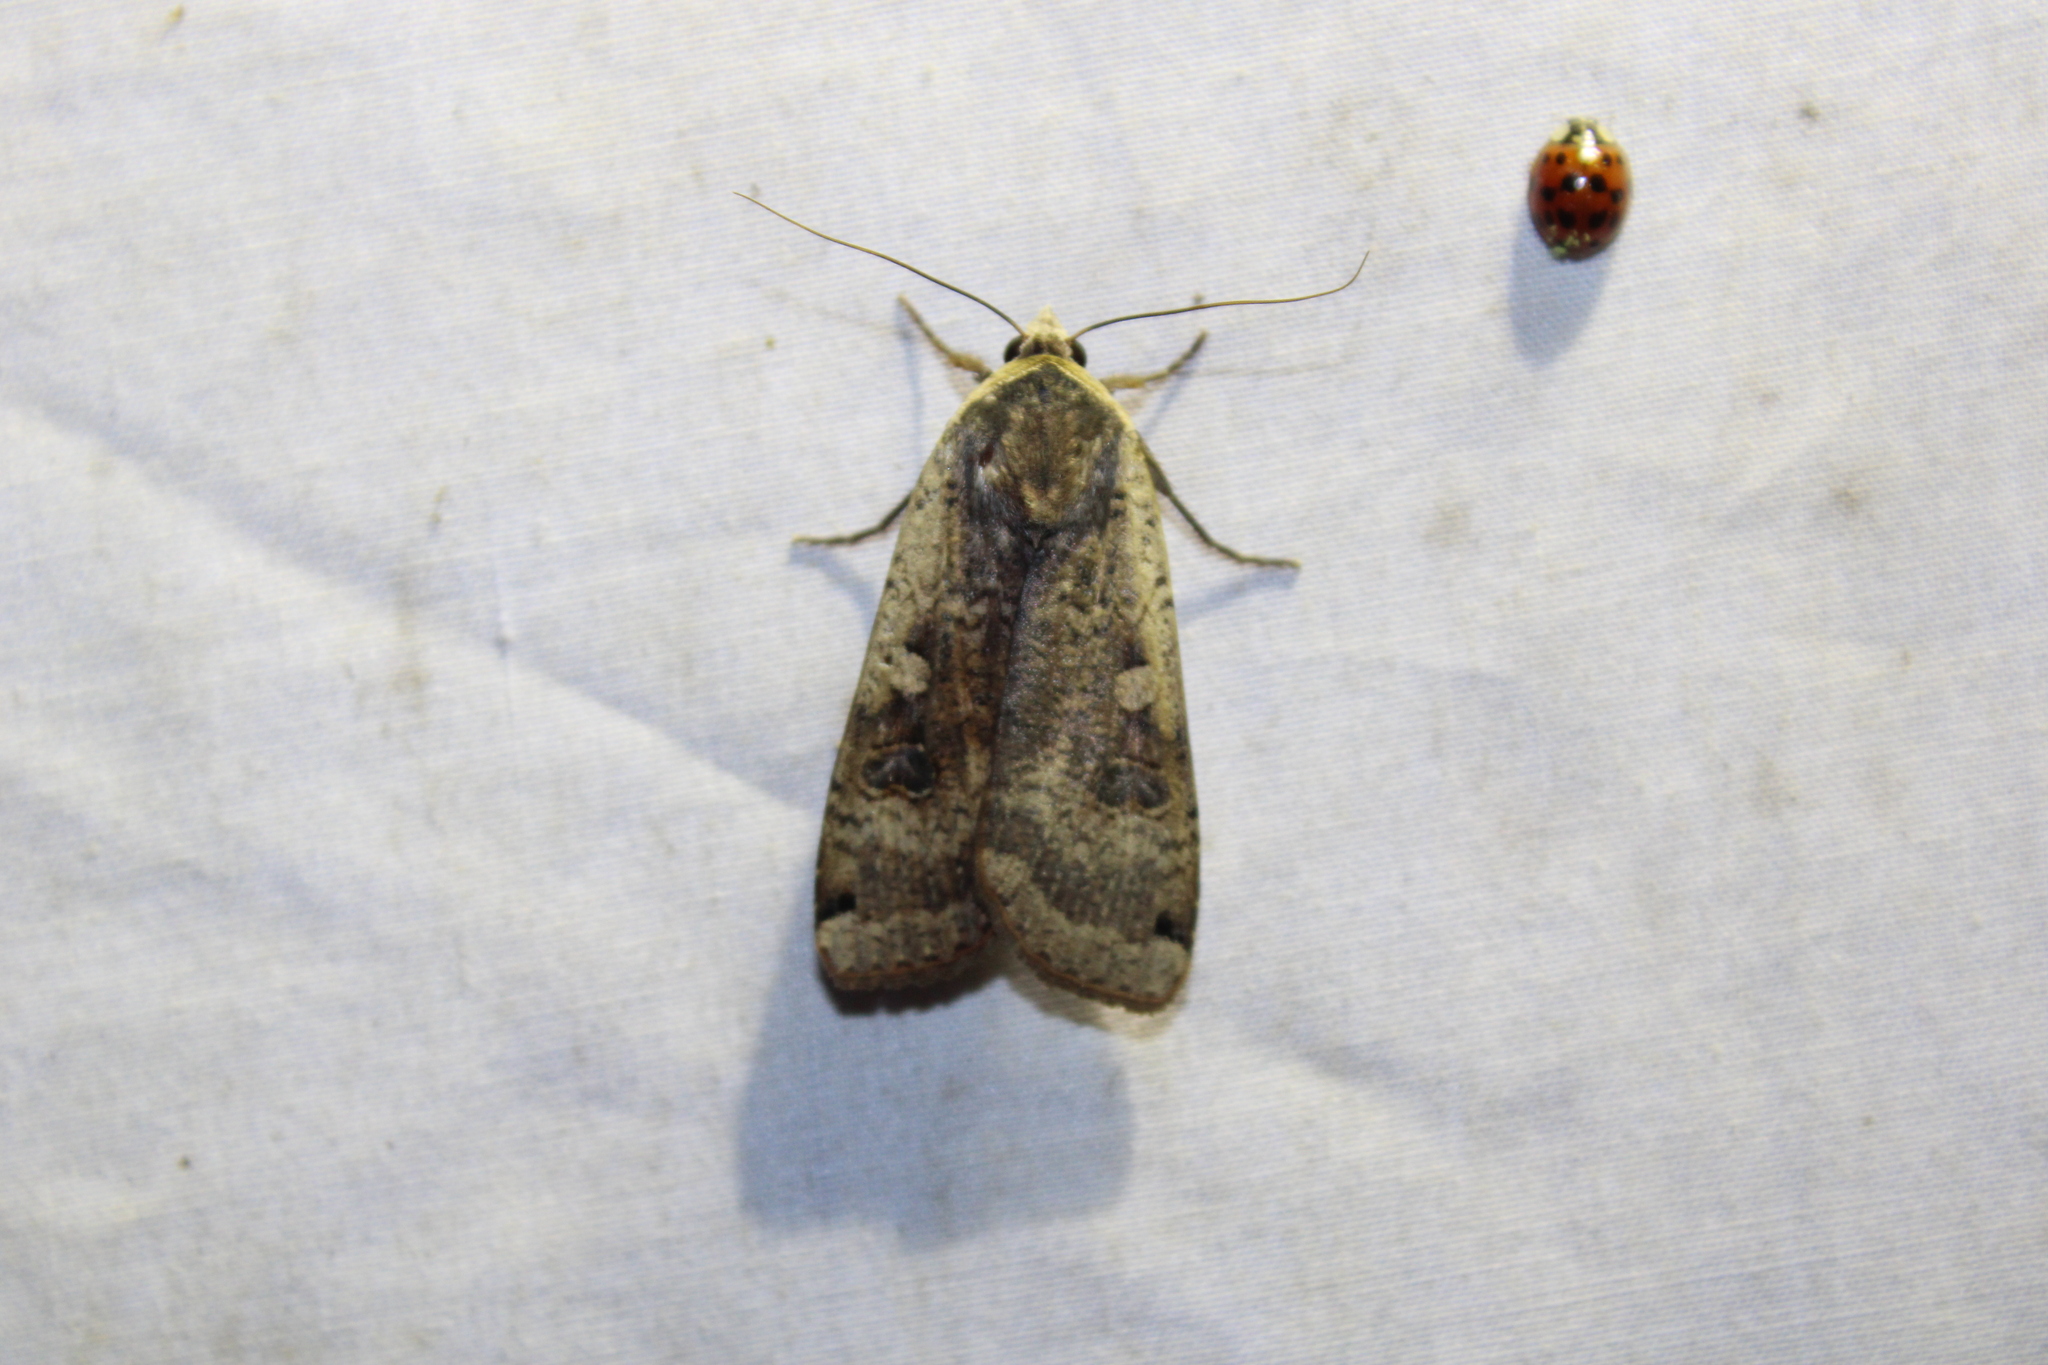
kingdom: Animalia
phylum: Arthropoda
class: Insecta
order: Lepidoptera
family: Noctuidae
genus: Noctua
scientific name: Noctua pronuba
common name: Large yellow underwing
